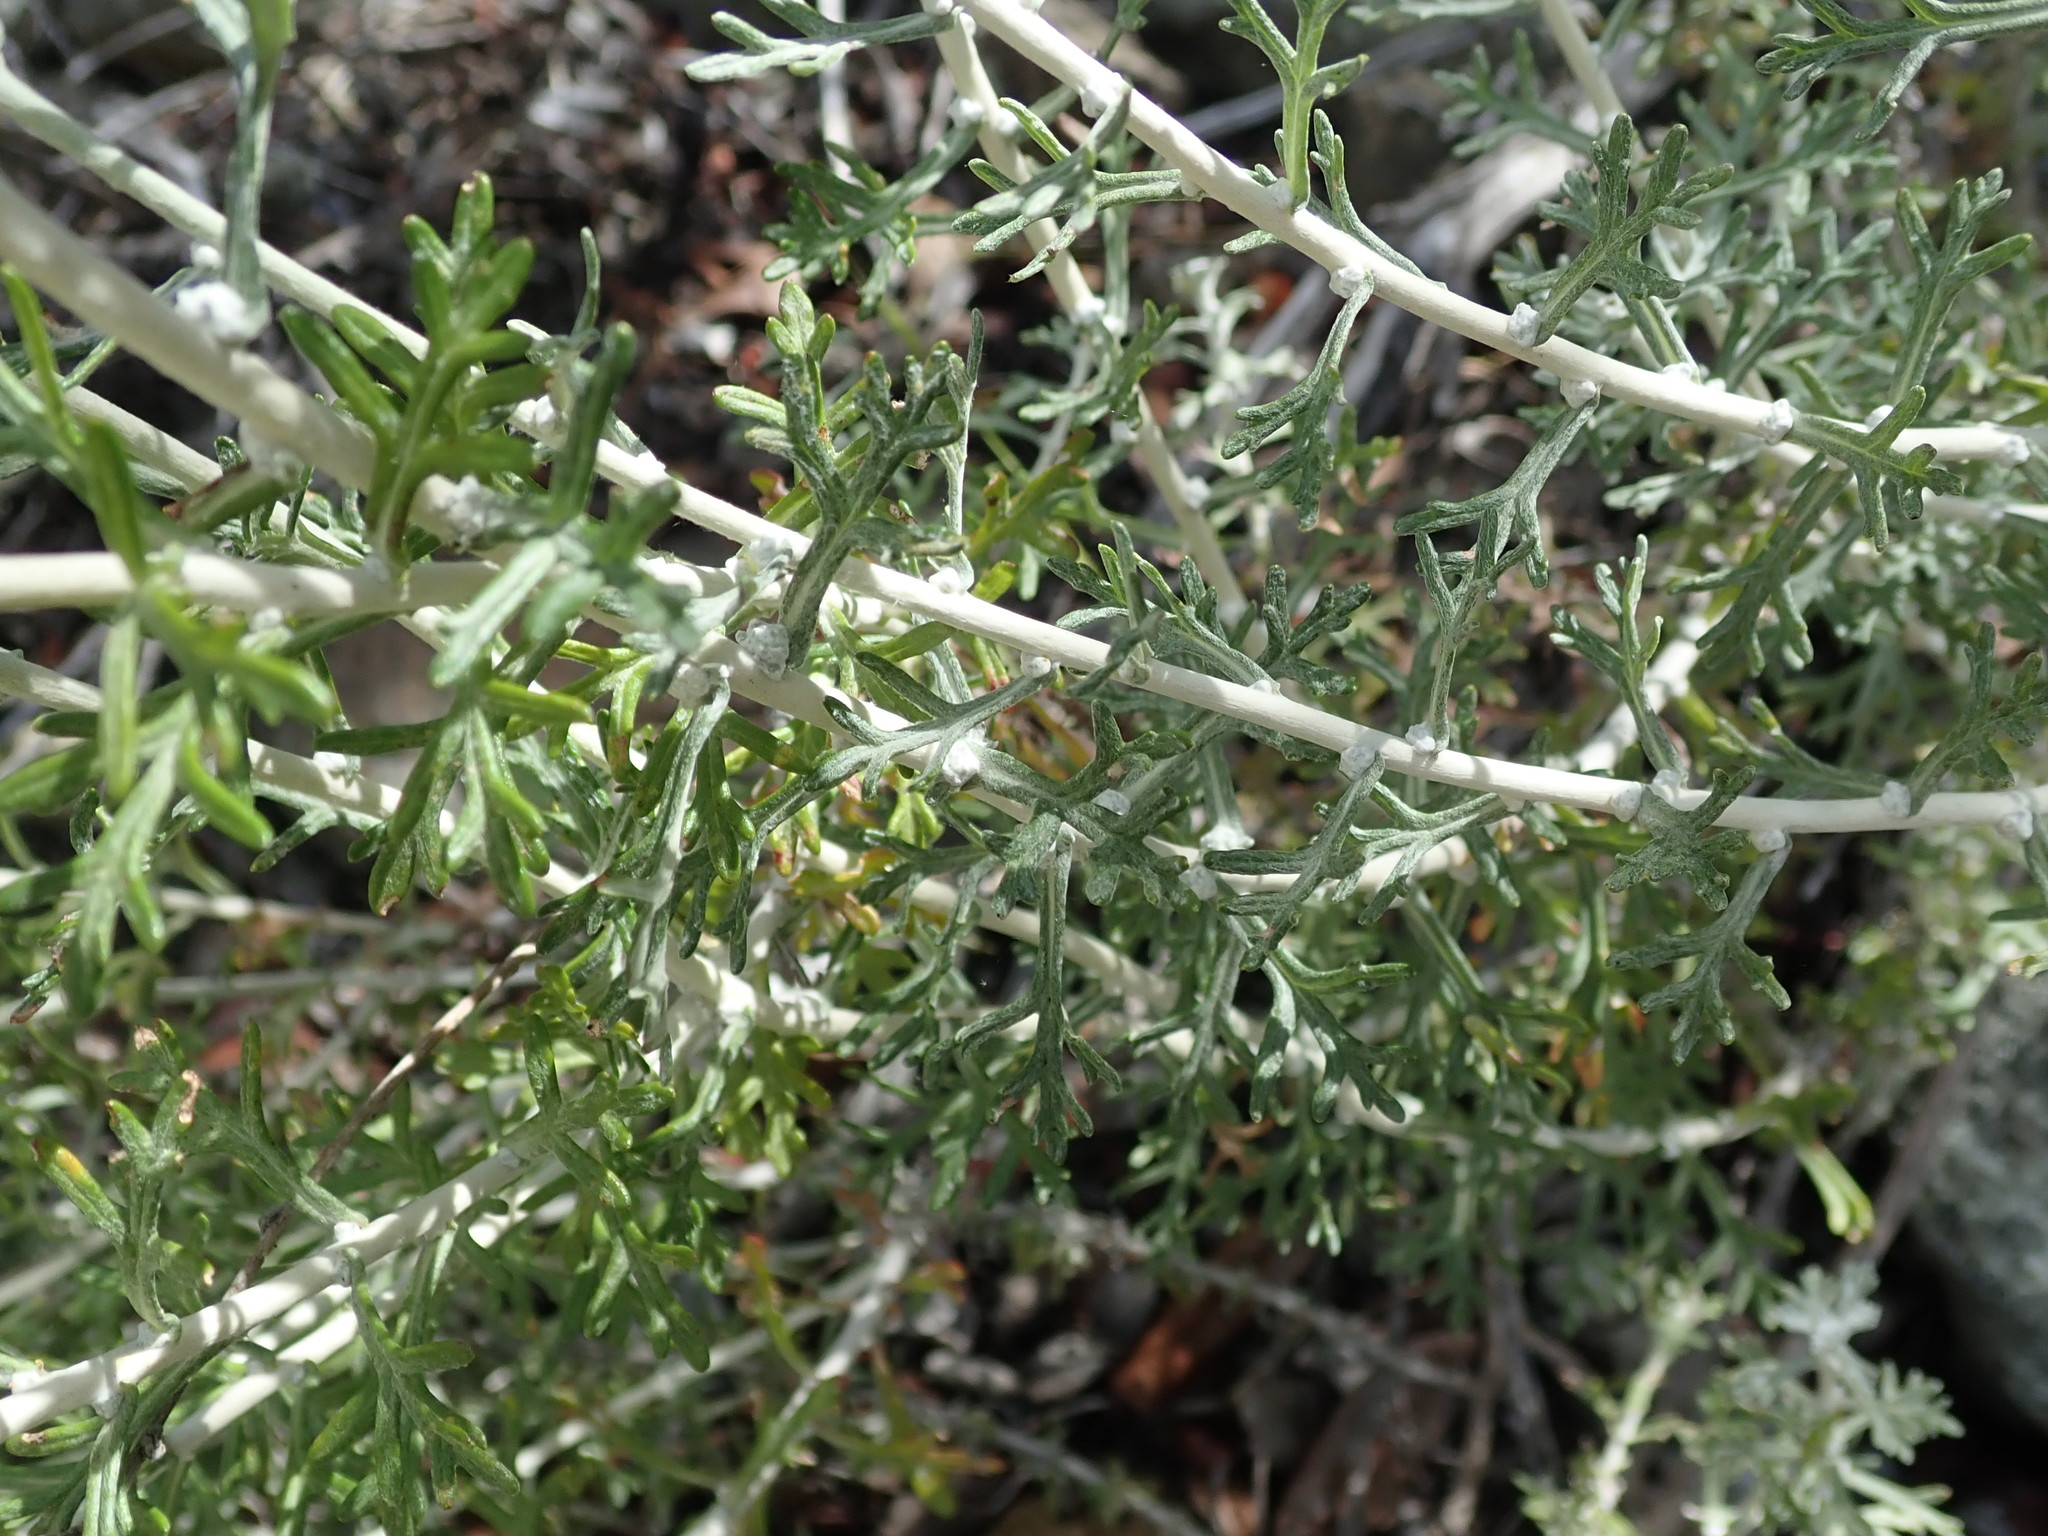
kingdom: Plantae
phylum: Tracheophyta
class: Magnoliopsida
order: Asterales
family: Asteraceae
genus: Eriophyllum
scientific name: Eriophyllum confertiflorum
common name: Golden-yarrow
